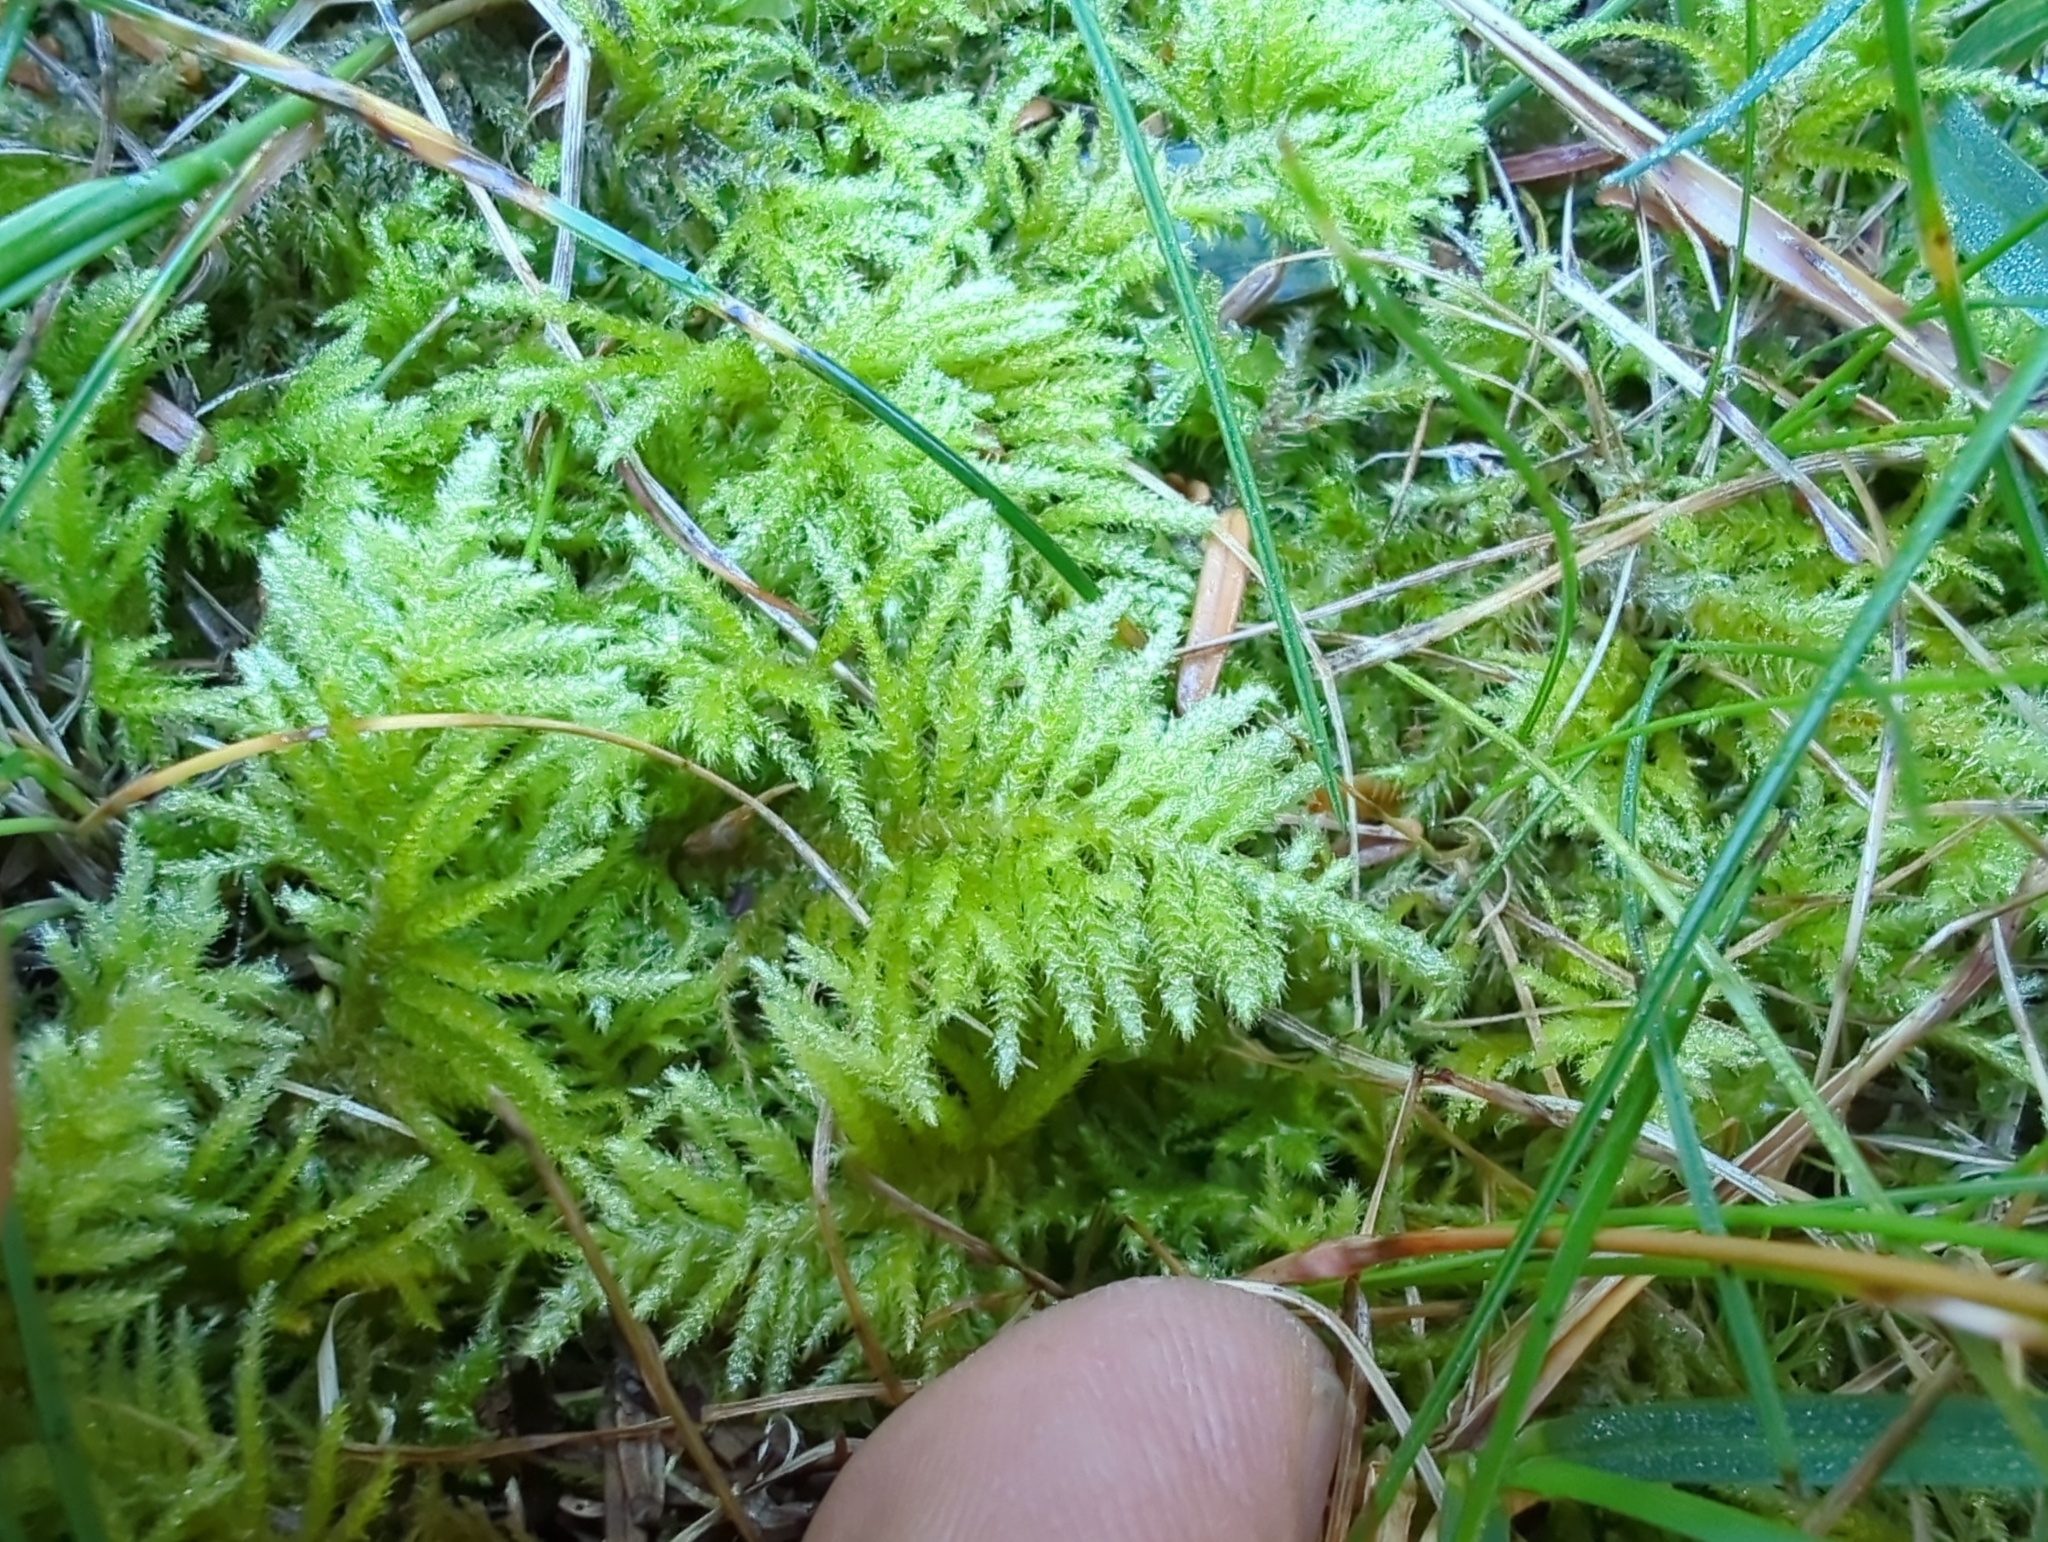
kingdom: Plantae
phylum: Bryophyta
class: Bryopsida
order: Hypnales
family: Brachytheciaceae
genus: Kindbergia
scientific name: Kindbergia oregana
